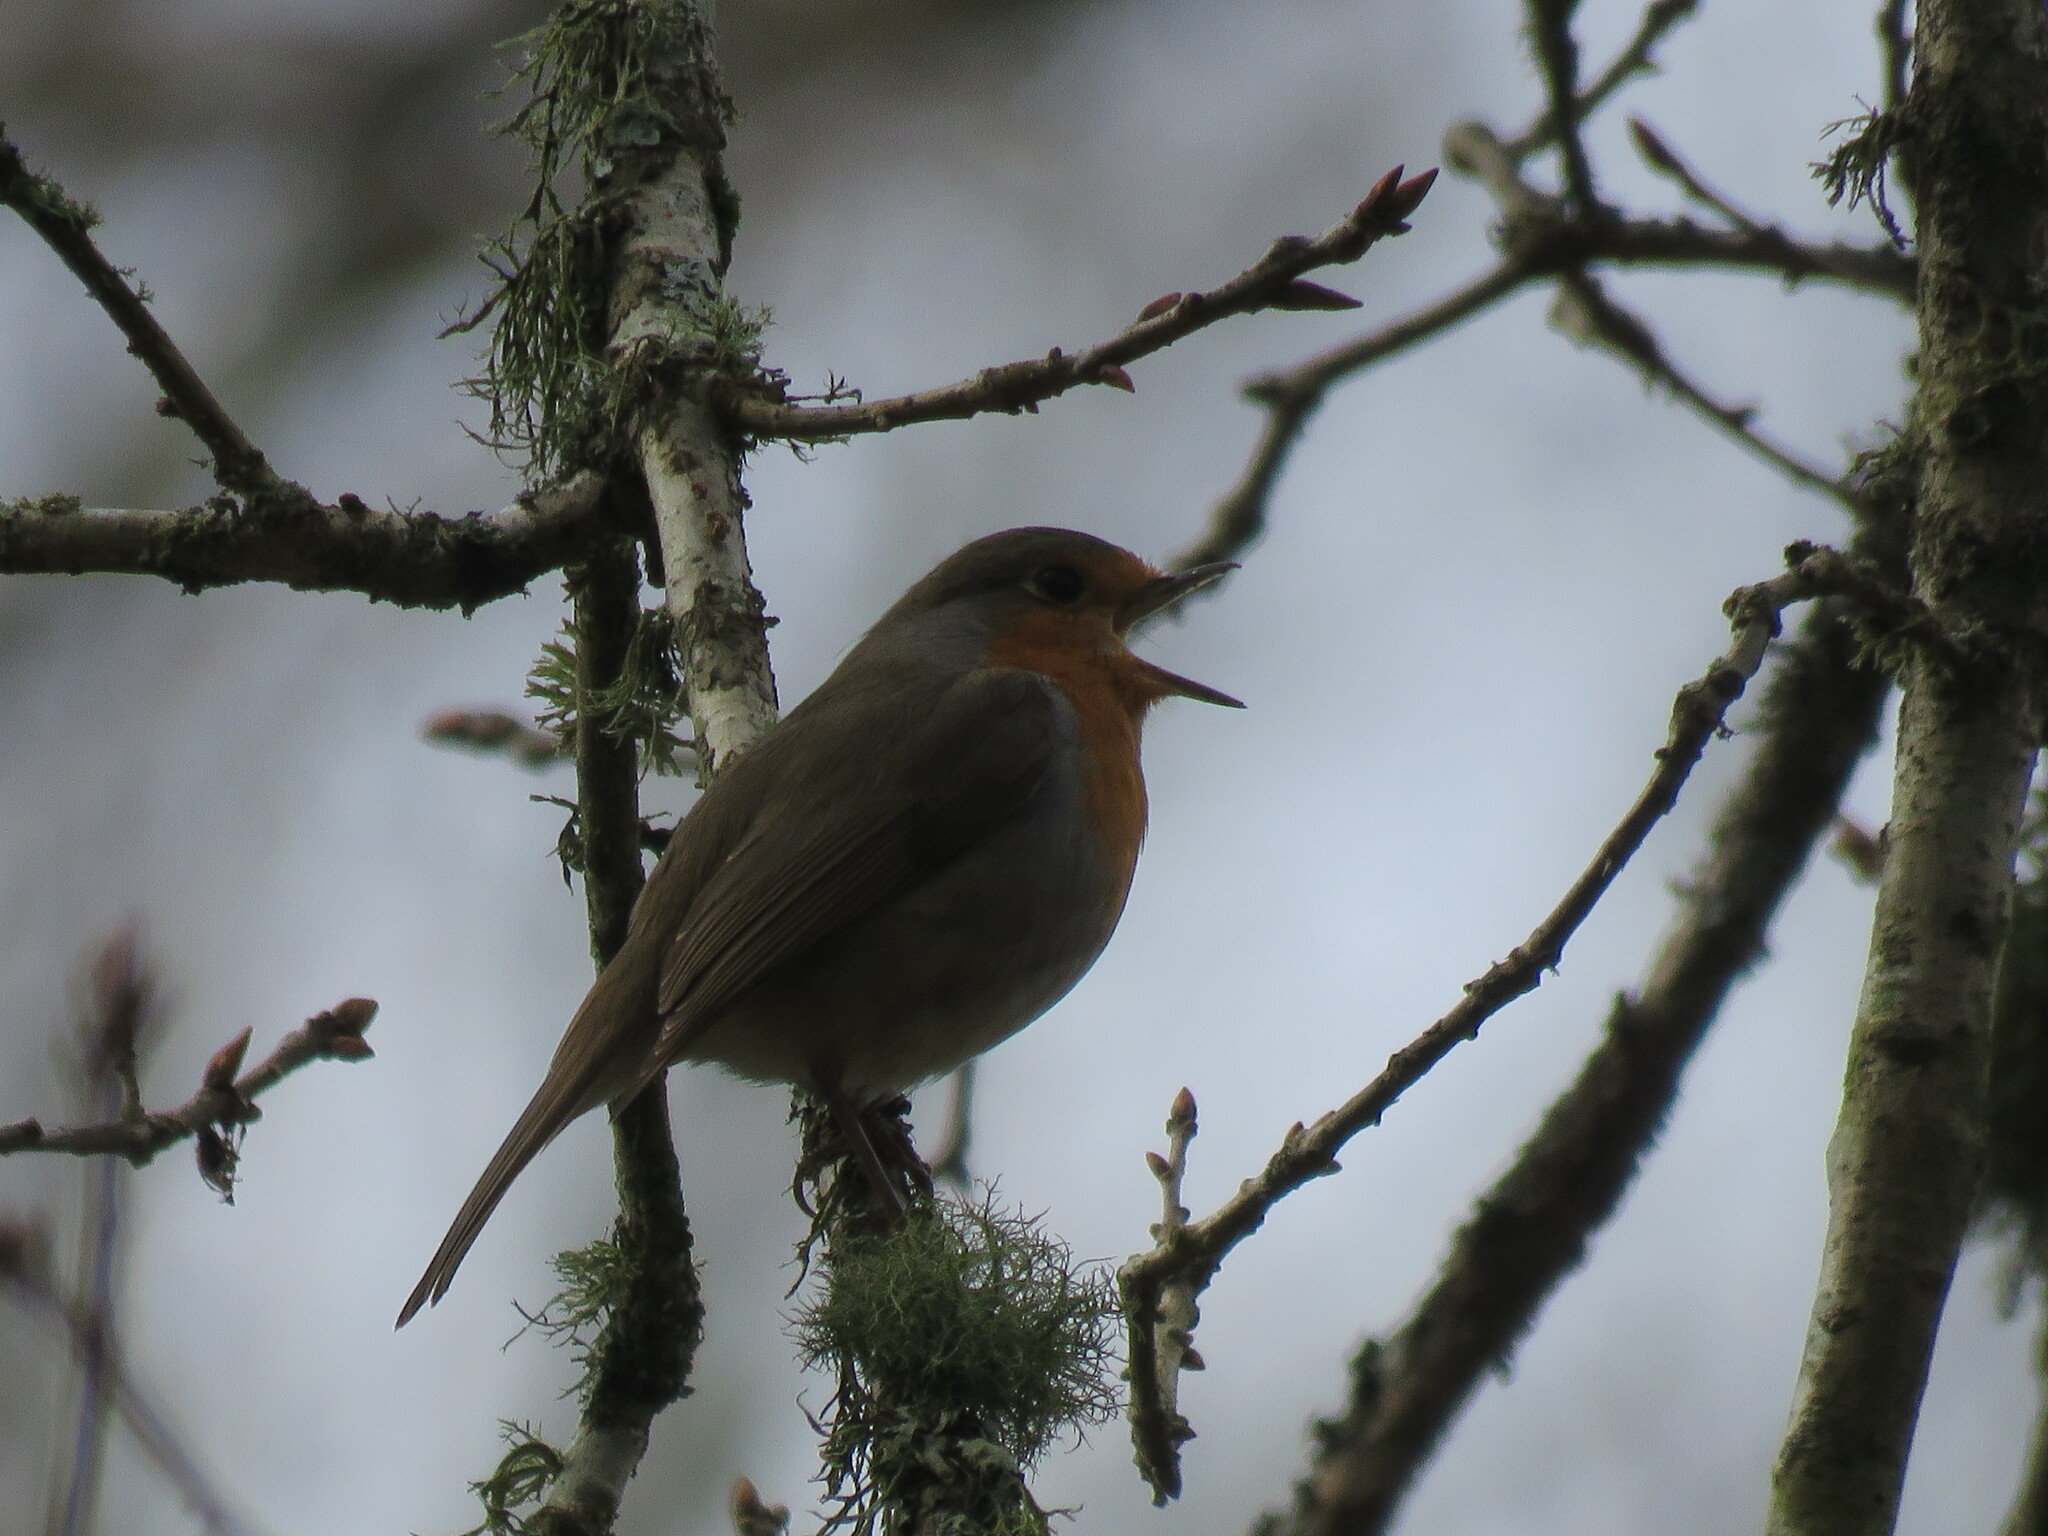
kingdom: Animalia
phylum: Chordata
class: Aves
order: Passeriformes
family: Muscicapidae
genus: Erithacus
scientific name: Erithacus rubecula
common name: European robin
